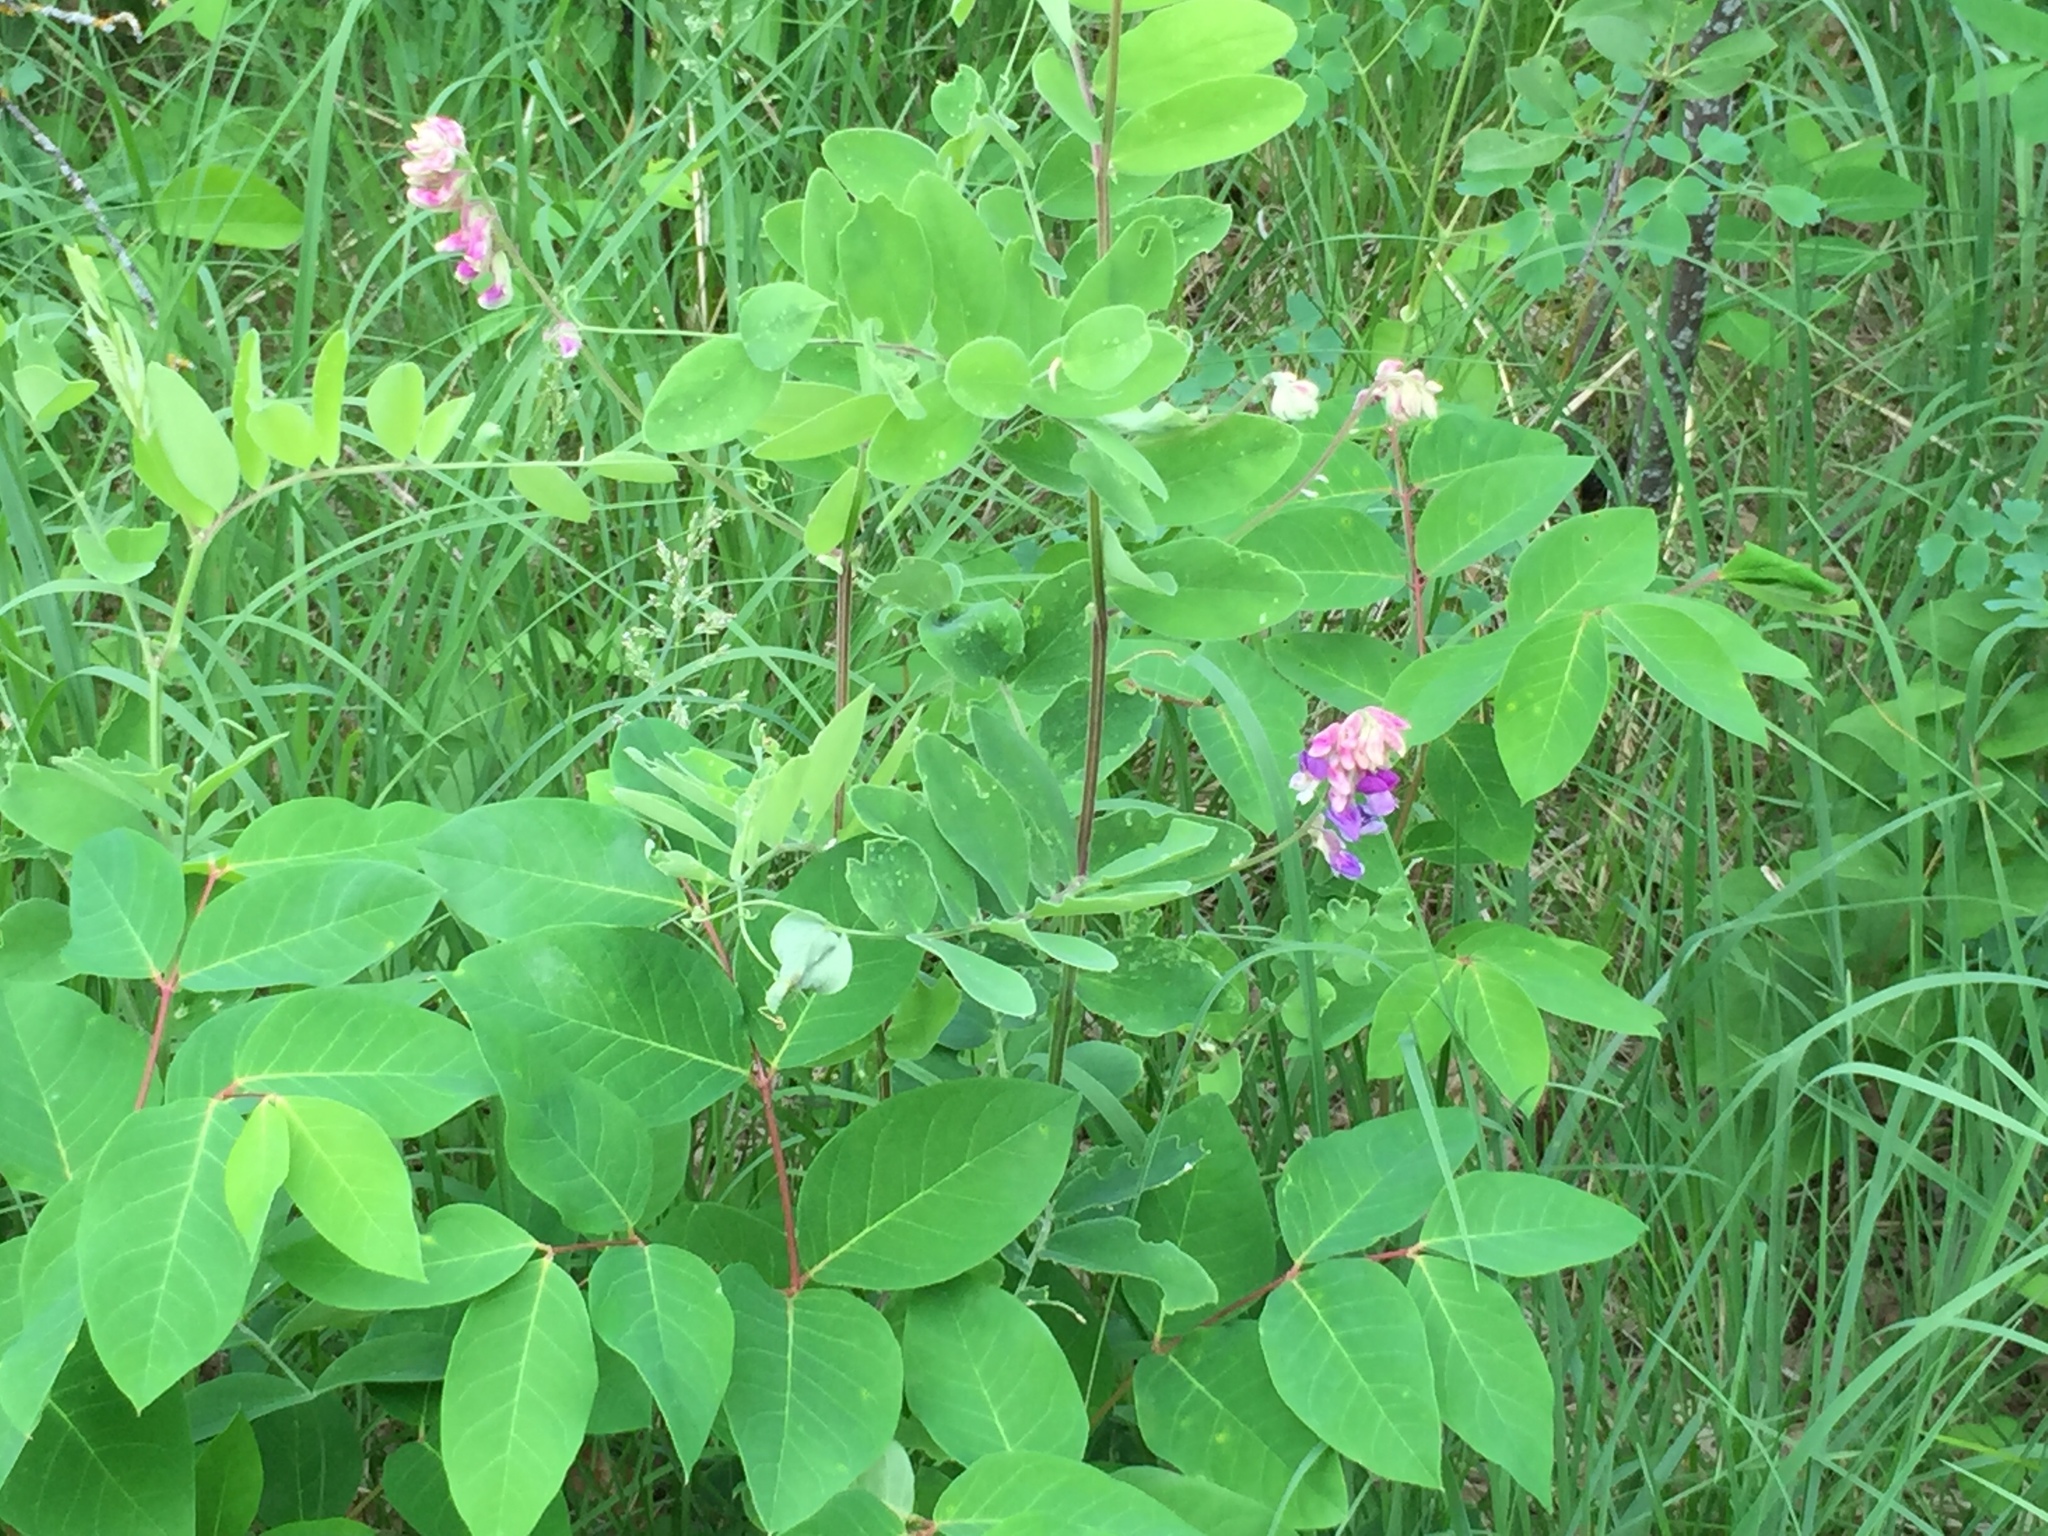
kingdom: Plantae
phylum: Tracheophyta
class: Magnoliopsida
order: Fabales
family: Fabaceae
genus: Lathyrus
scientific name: Lathyrus venosus
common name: Forest-pea
